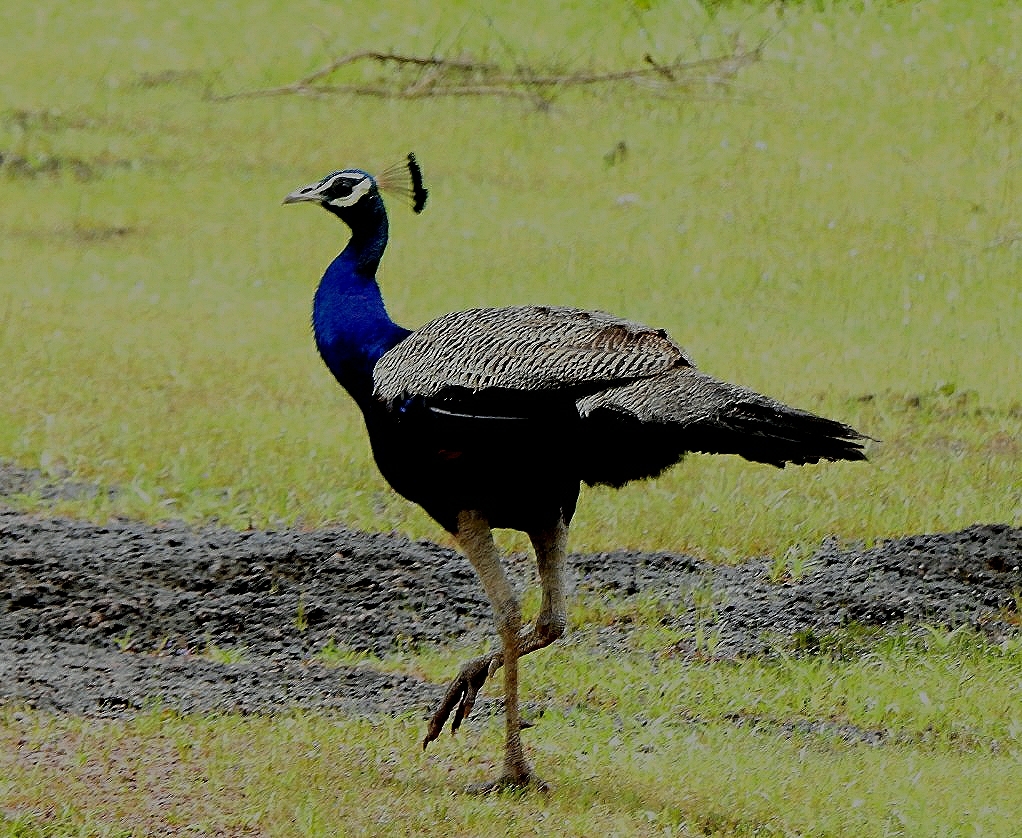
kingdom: Animalia
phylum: Chordata
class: Aves
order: Galliformes
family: Phasianidae
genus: Pavo
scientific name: Pavo cristatus
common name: Indian peafowl
